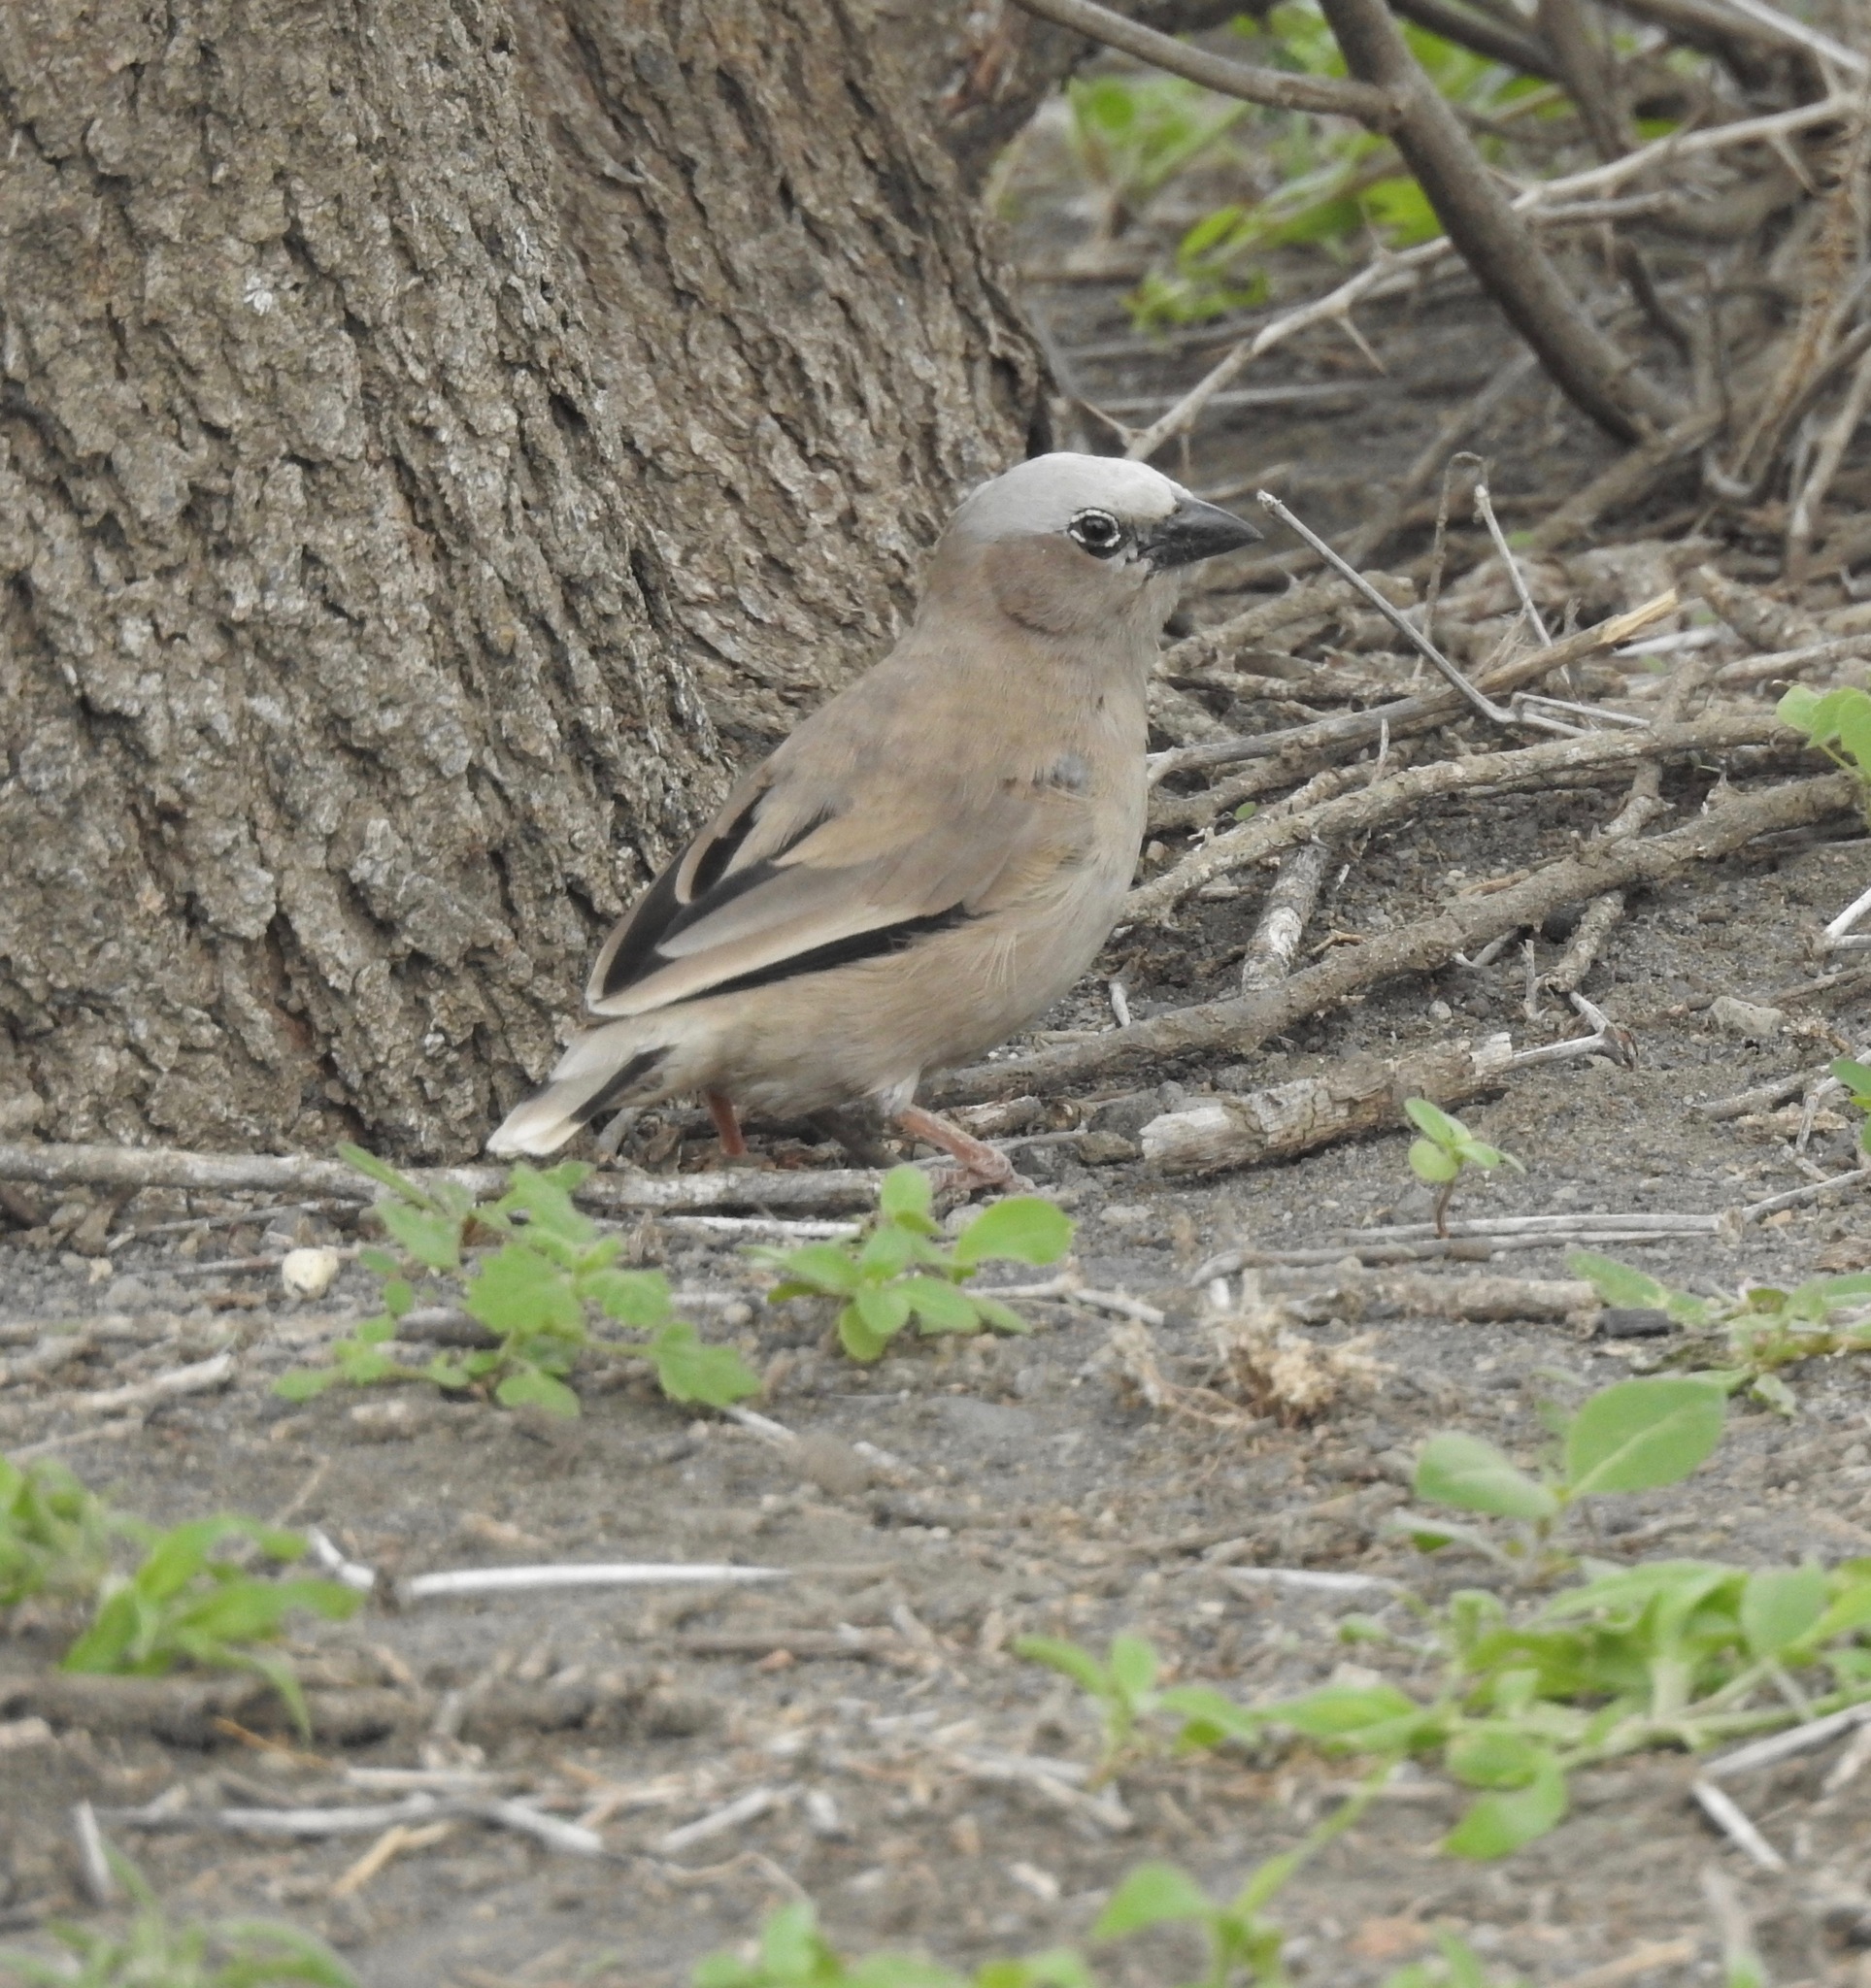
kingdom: Animalia
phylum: Chordata
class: Aves
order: Passeriformes
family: Passeridae
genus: Pseudonigrita
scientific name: Pseudonigrita arnaudi
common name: Grey-capped social weaver
